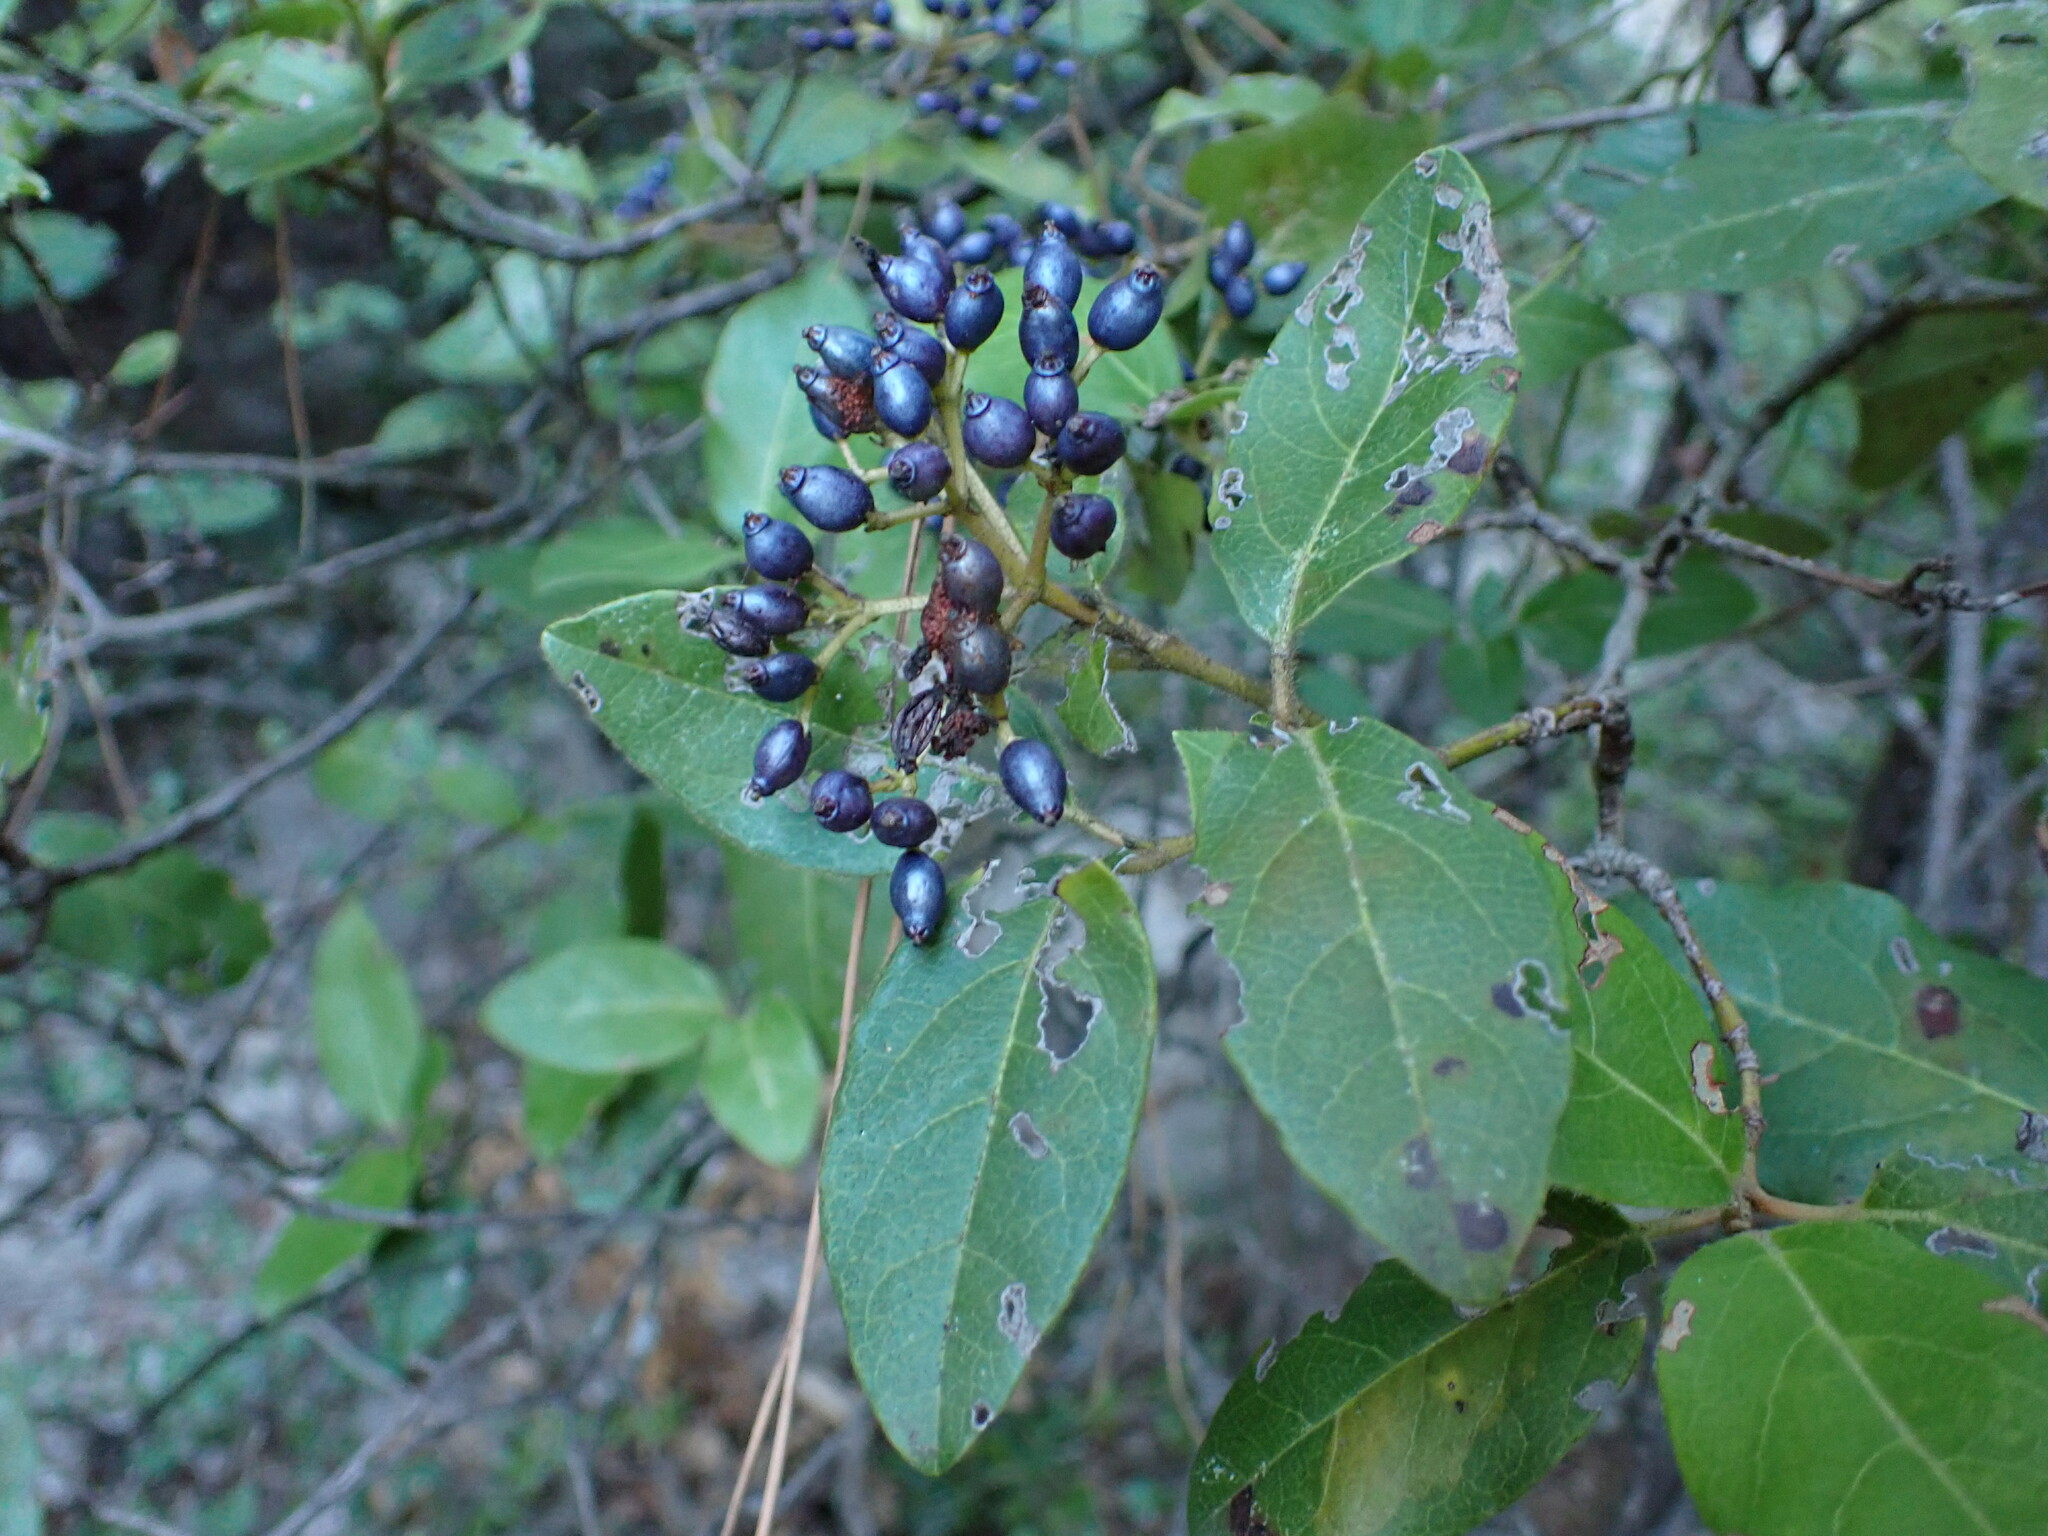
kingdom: Plantae
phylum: Tracheophyta
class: Magnoliopsida
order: Dipsacales
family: Viburnaceae
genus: Viburnum
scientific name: Viburnum tinus
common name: Laurustinus
